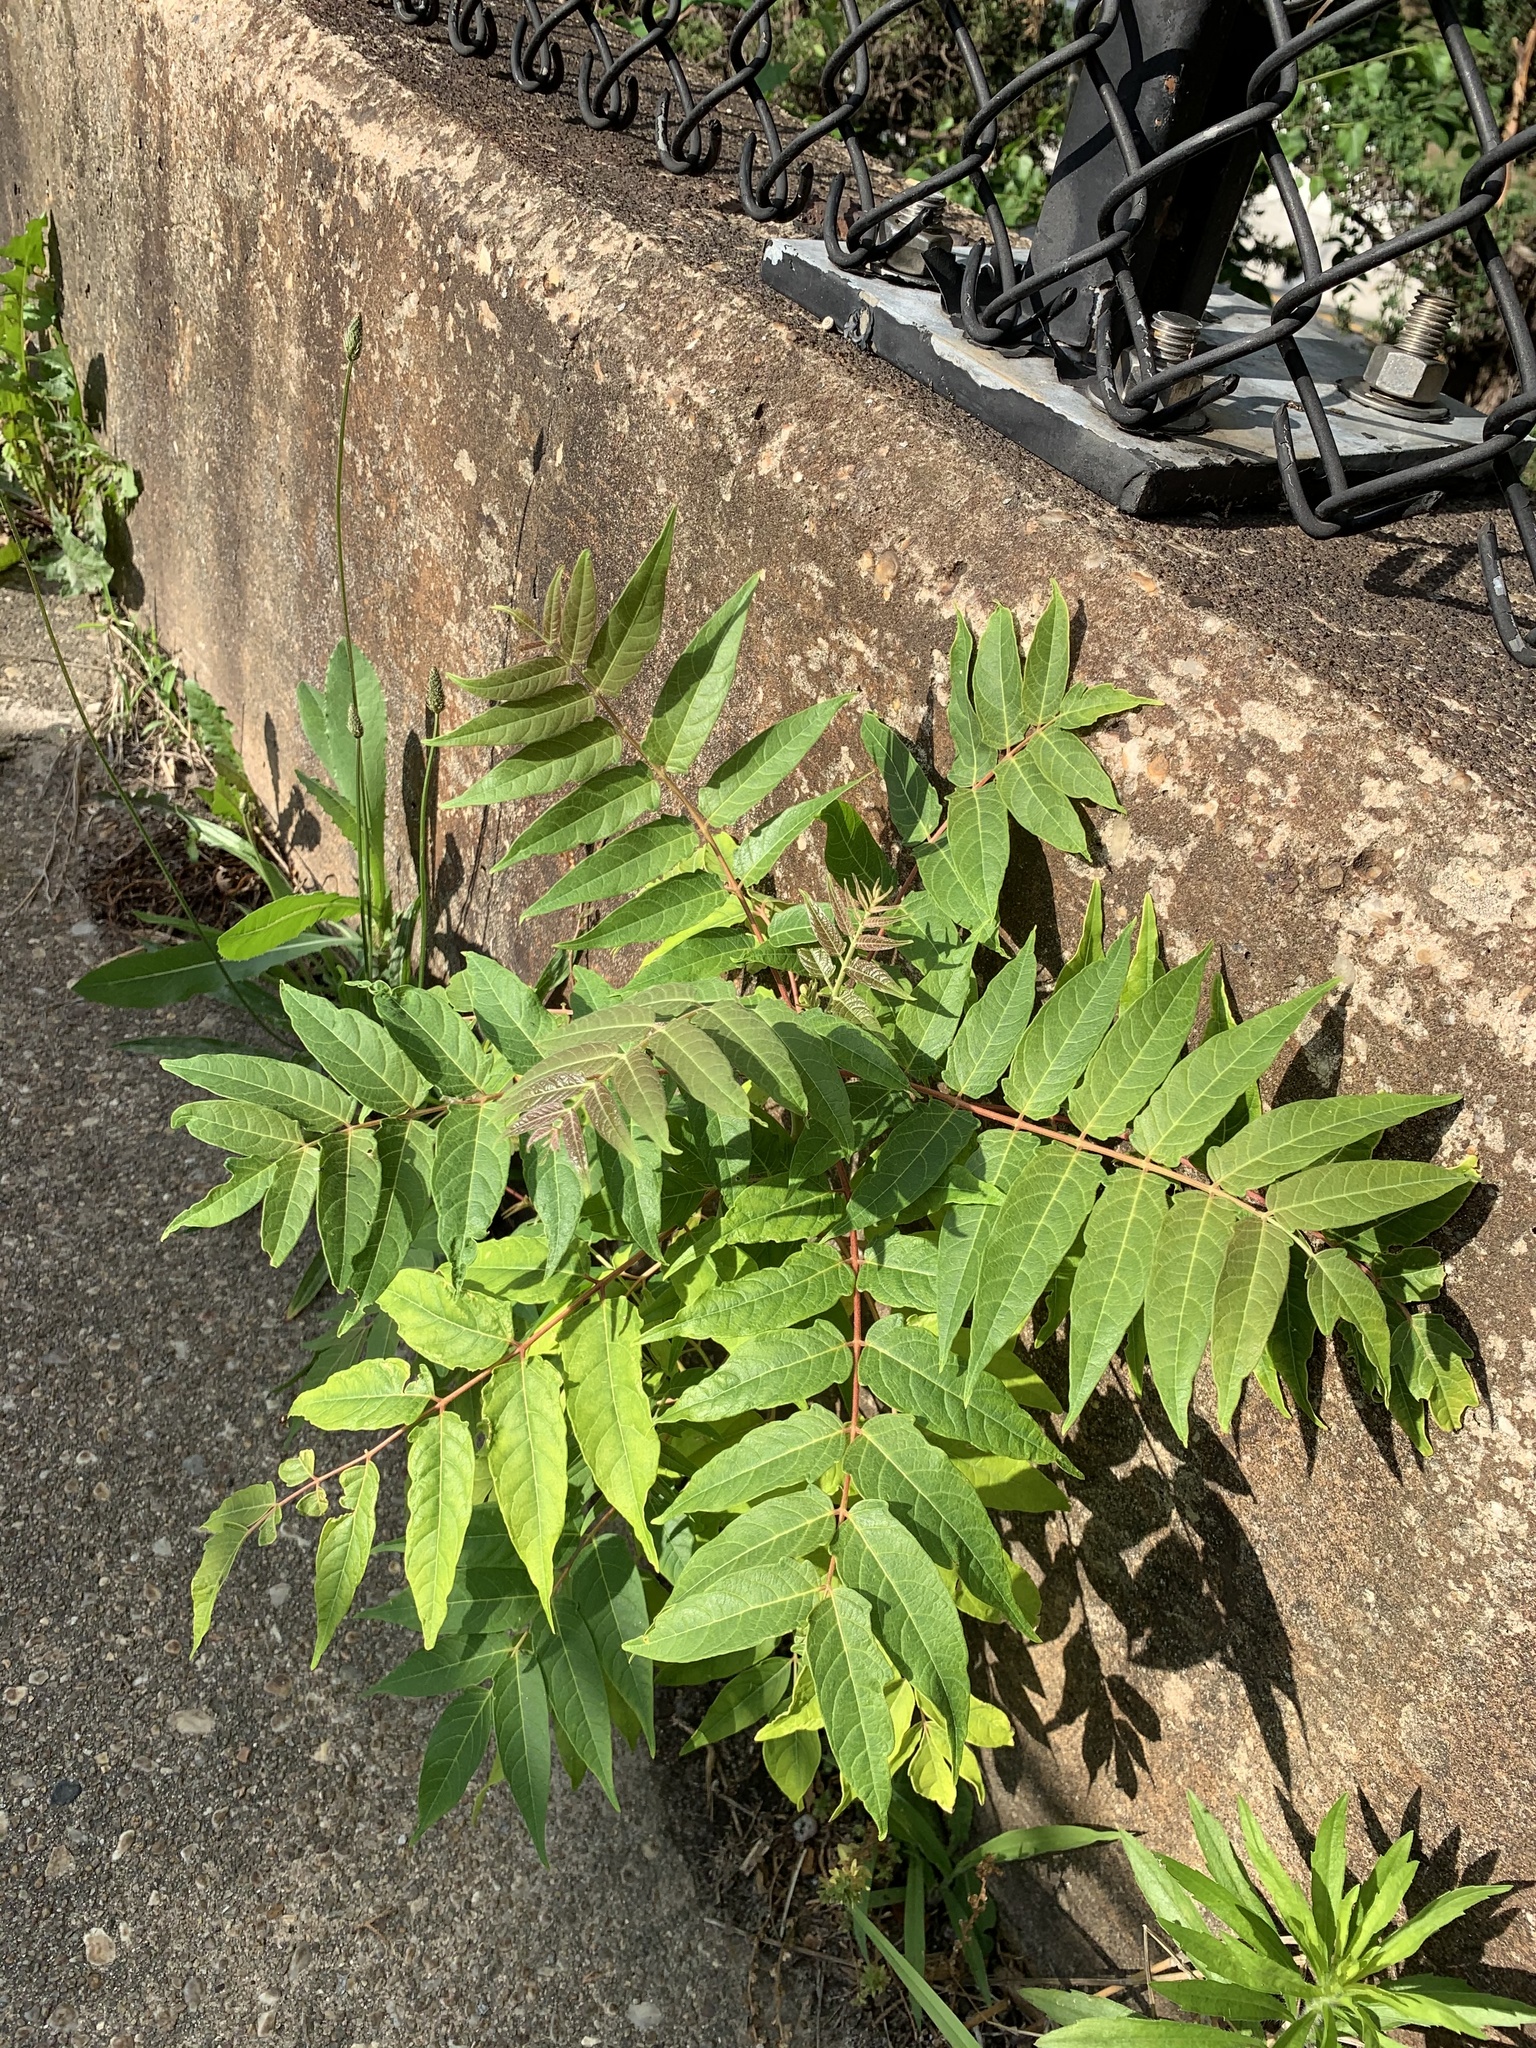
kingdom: Plantae
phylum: Tracheophyta
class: Magnoliopsida
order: Sapindales
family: Simaroubaceae
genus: Ailanthus
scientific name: Ailanthus altissima
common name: Tree-of-heaven
